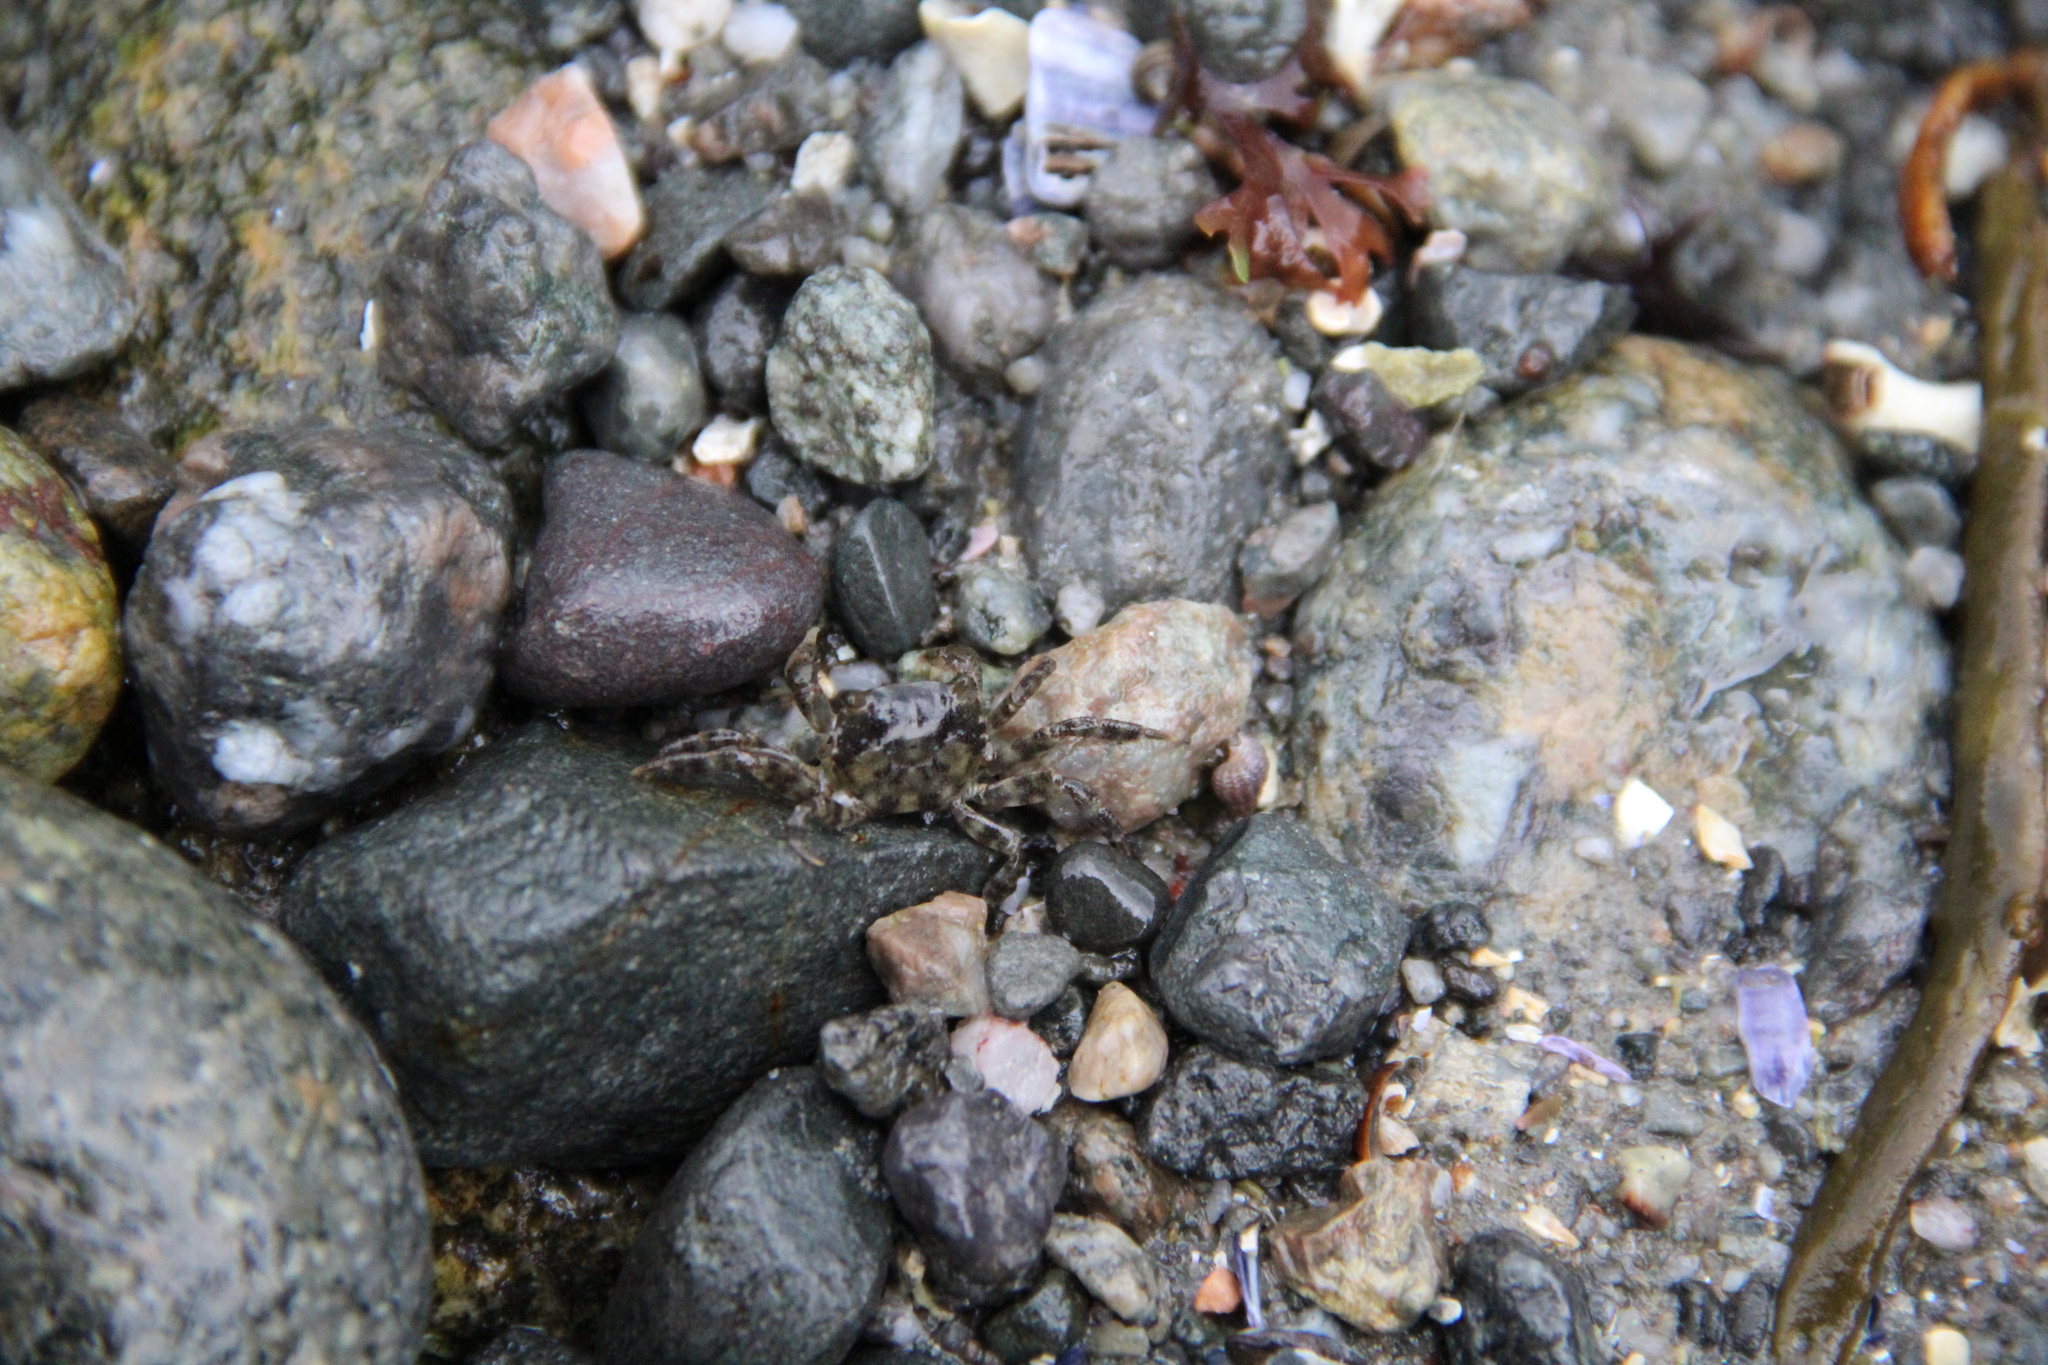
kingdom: Animalia
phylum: Arthropoda
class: Malacostraca
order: Decapoda
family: Varunidae
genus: Hemigrapsus
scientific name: Hemigrapsus sanguineus
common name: Asian shore crab
